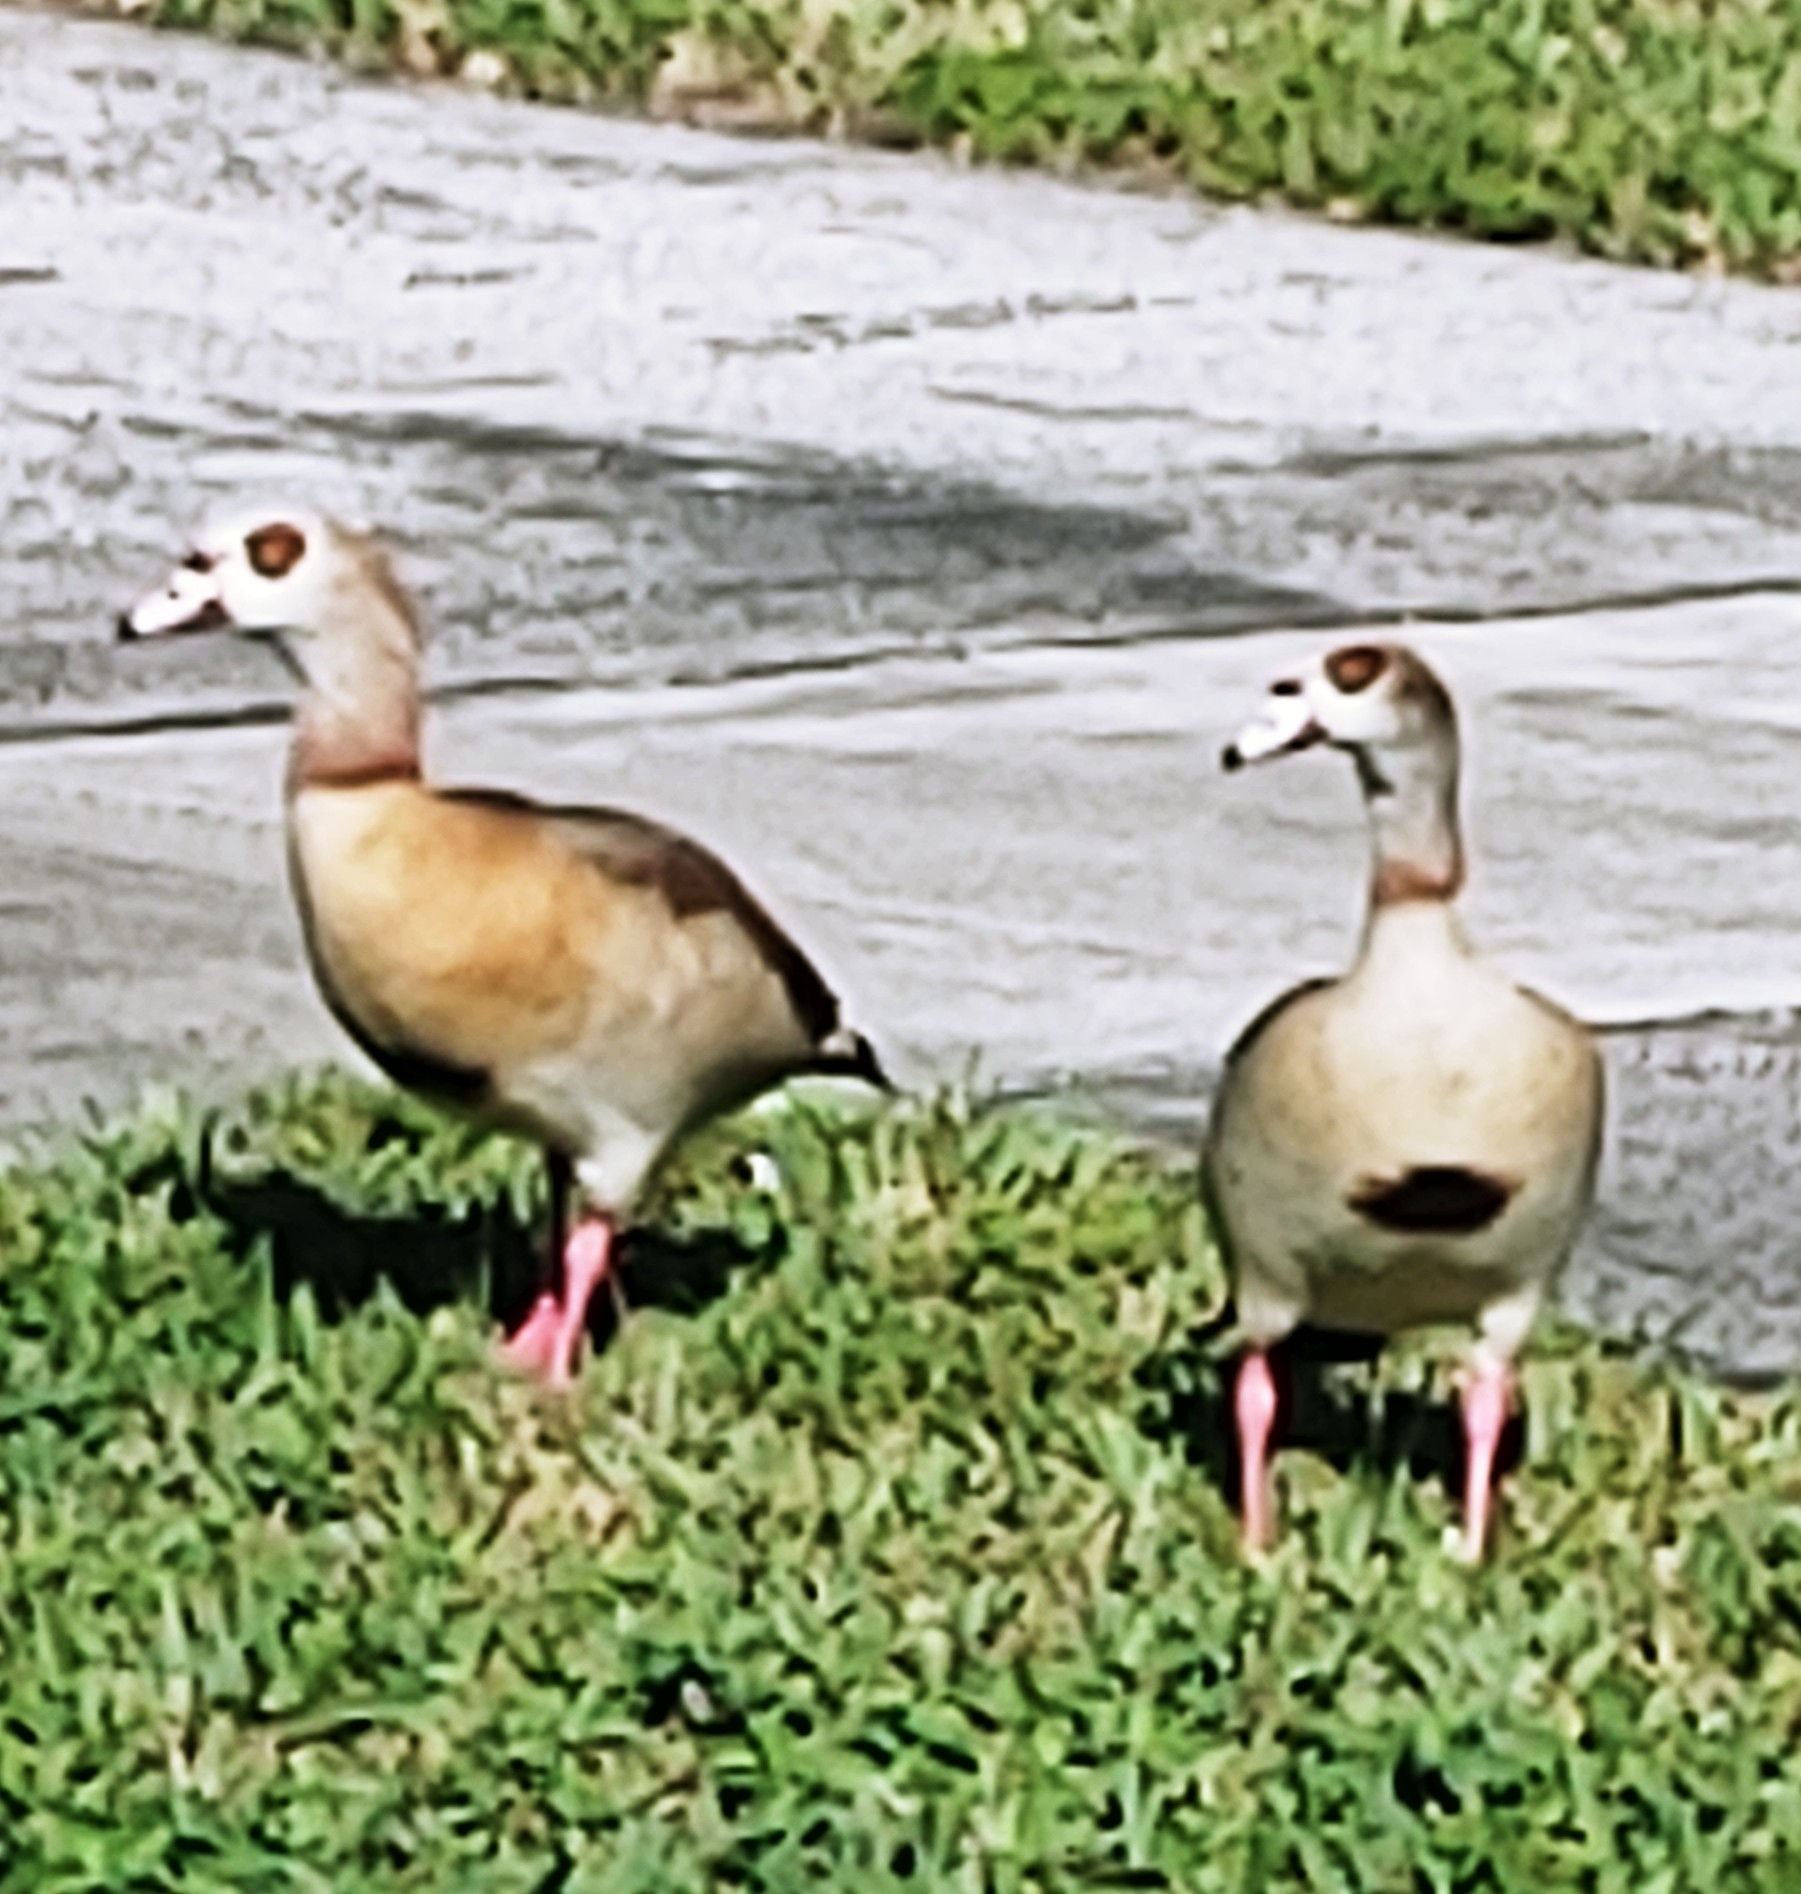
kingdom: Animalia
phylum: Chordata
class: Aves
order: Anseriformes
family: Anatidae
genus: Alopochen
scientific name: Alopochen aegyptiaca
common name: Egyptian goose
